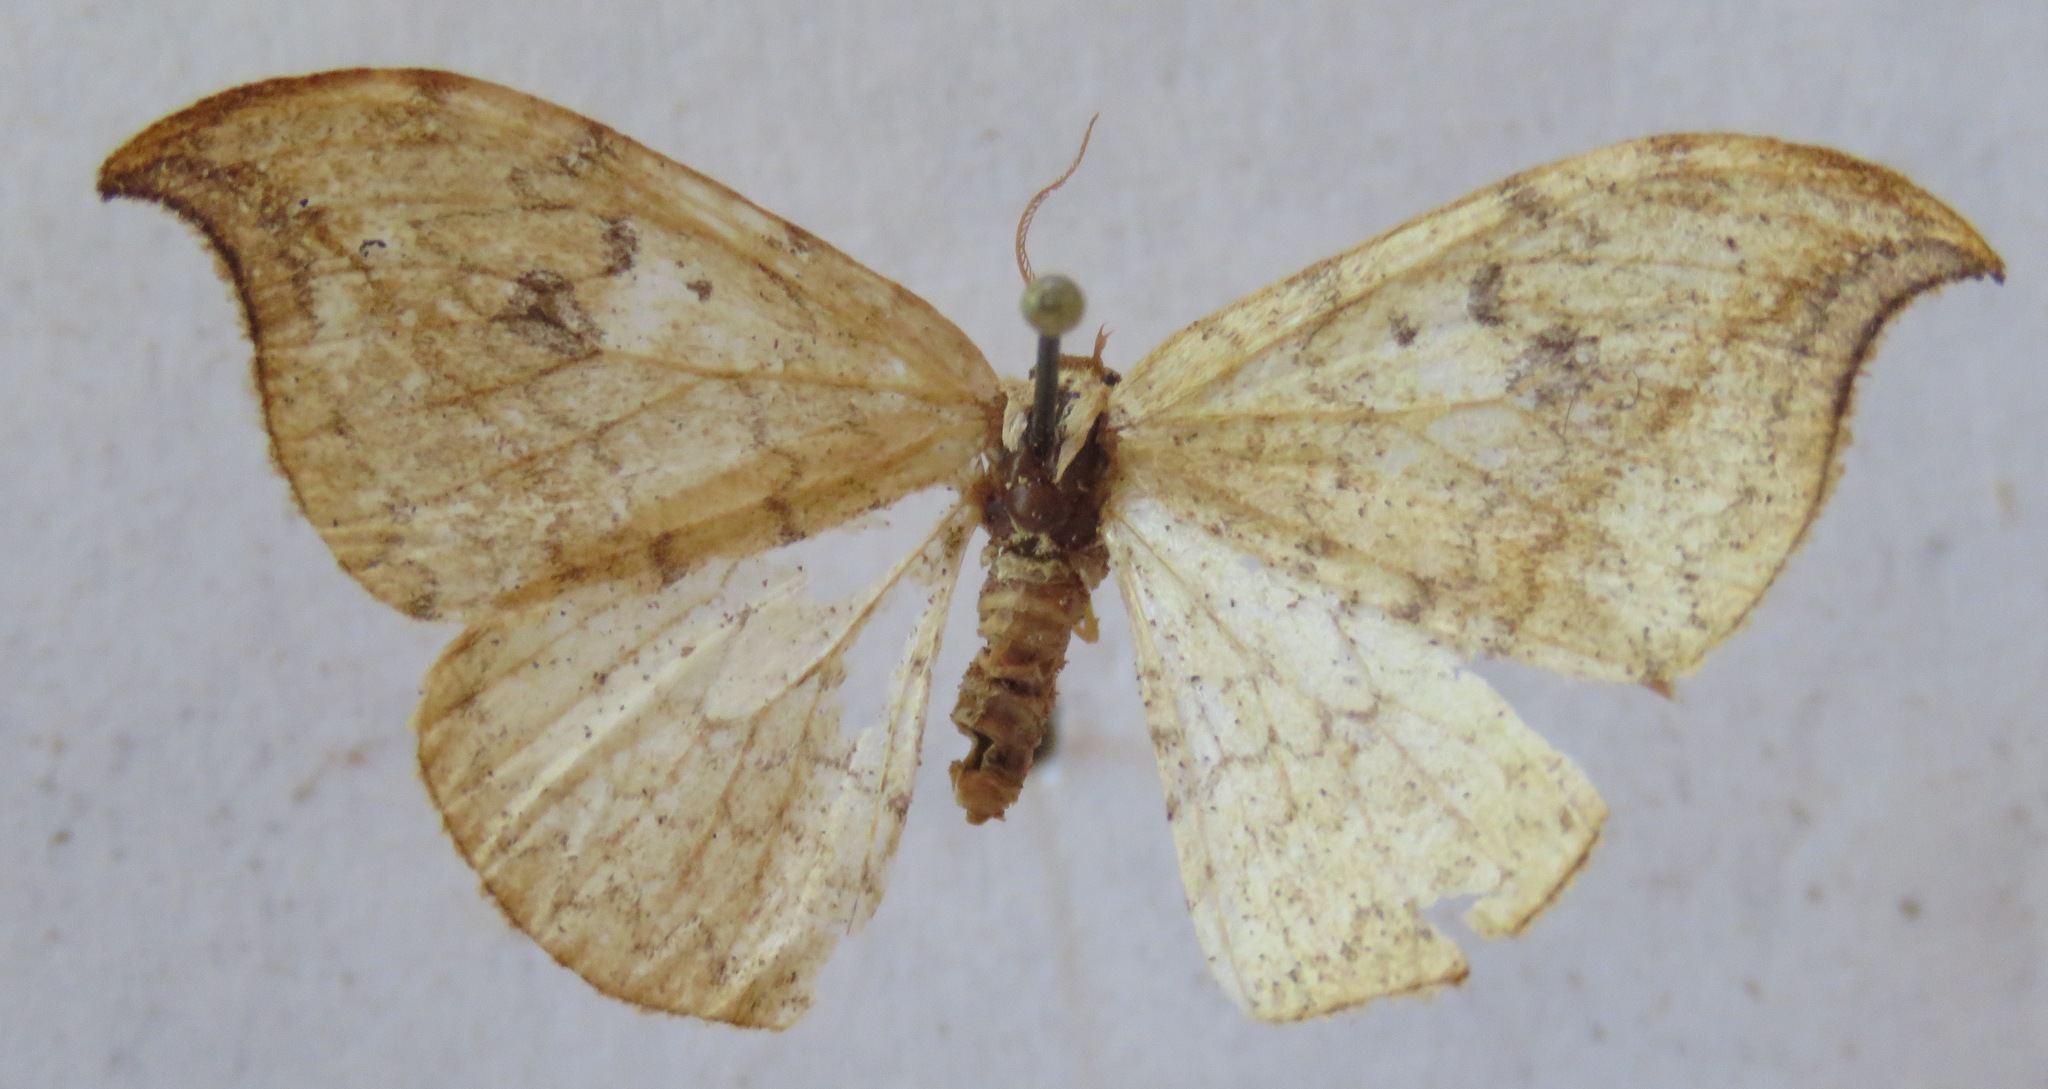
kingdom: Animalia
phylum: Arthropoda
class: Insecta
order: Lepidoptera
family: Drepanidae
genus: Drepana
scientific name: Drepana falcataria
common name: Pebble hook-tip
